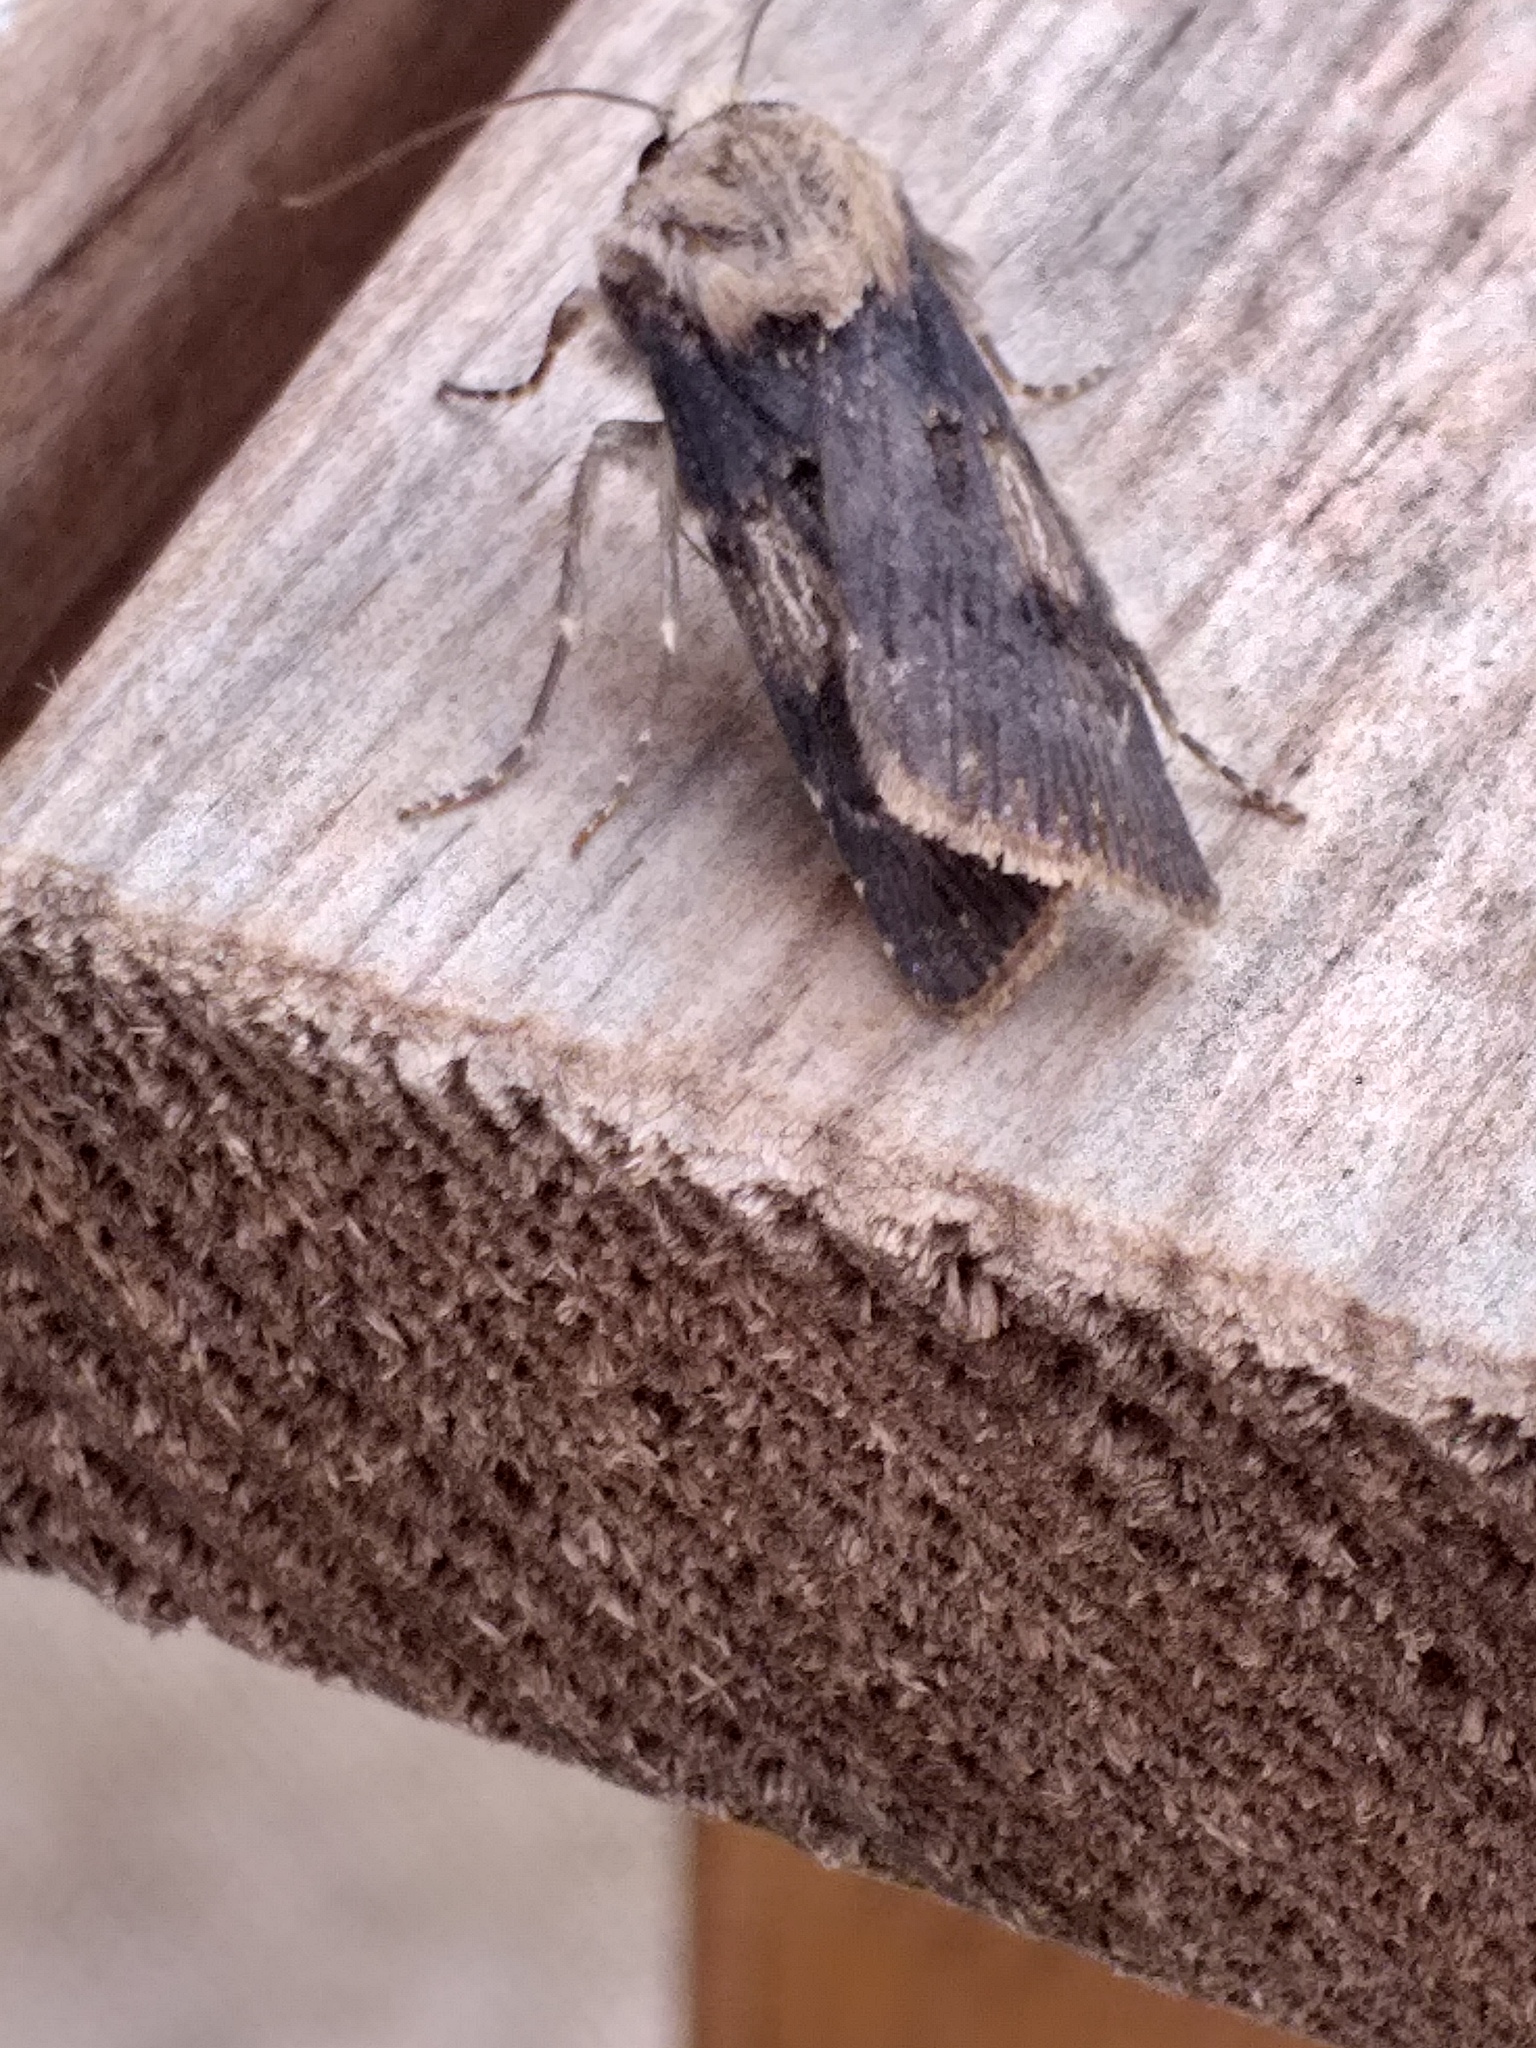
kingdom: Animalia
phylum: Arthropoda
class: Insecta
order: Lepidoptera
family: Noctuidae
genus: Agrotis
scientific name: Agrotis puta
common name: Shuttle-shaped dart
